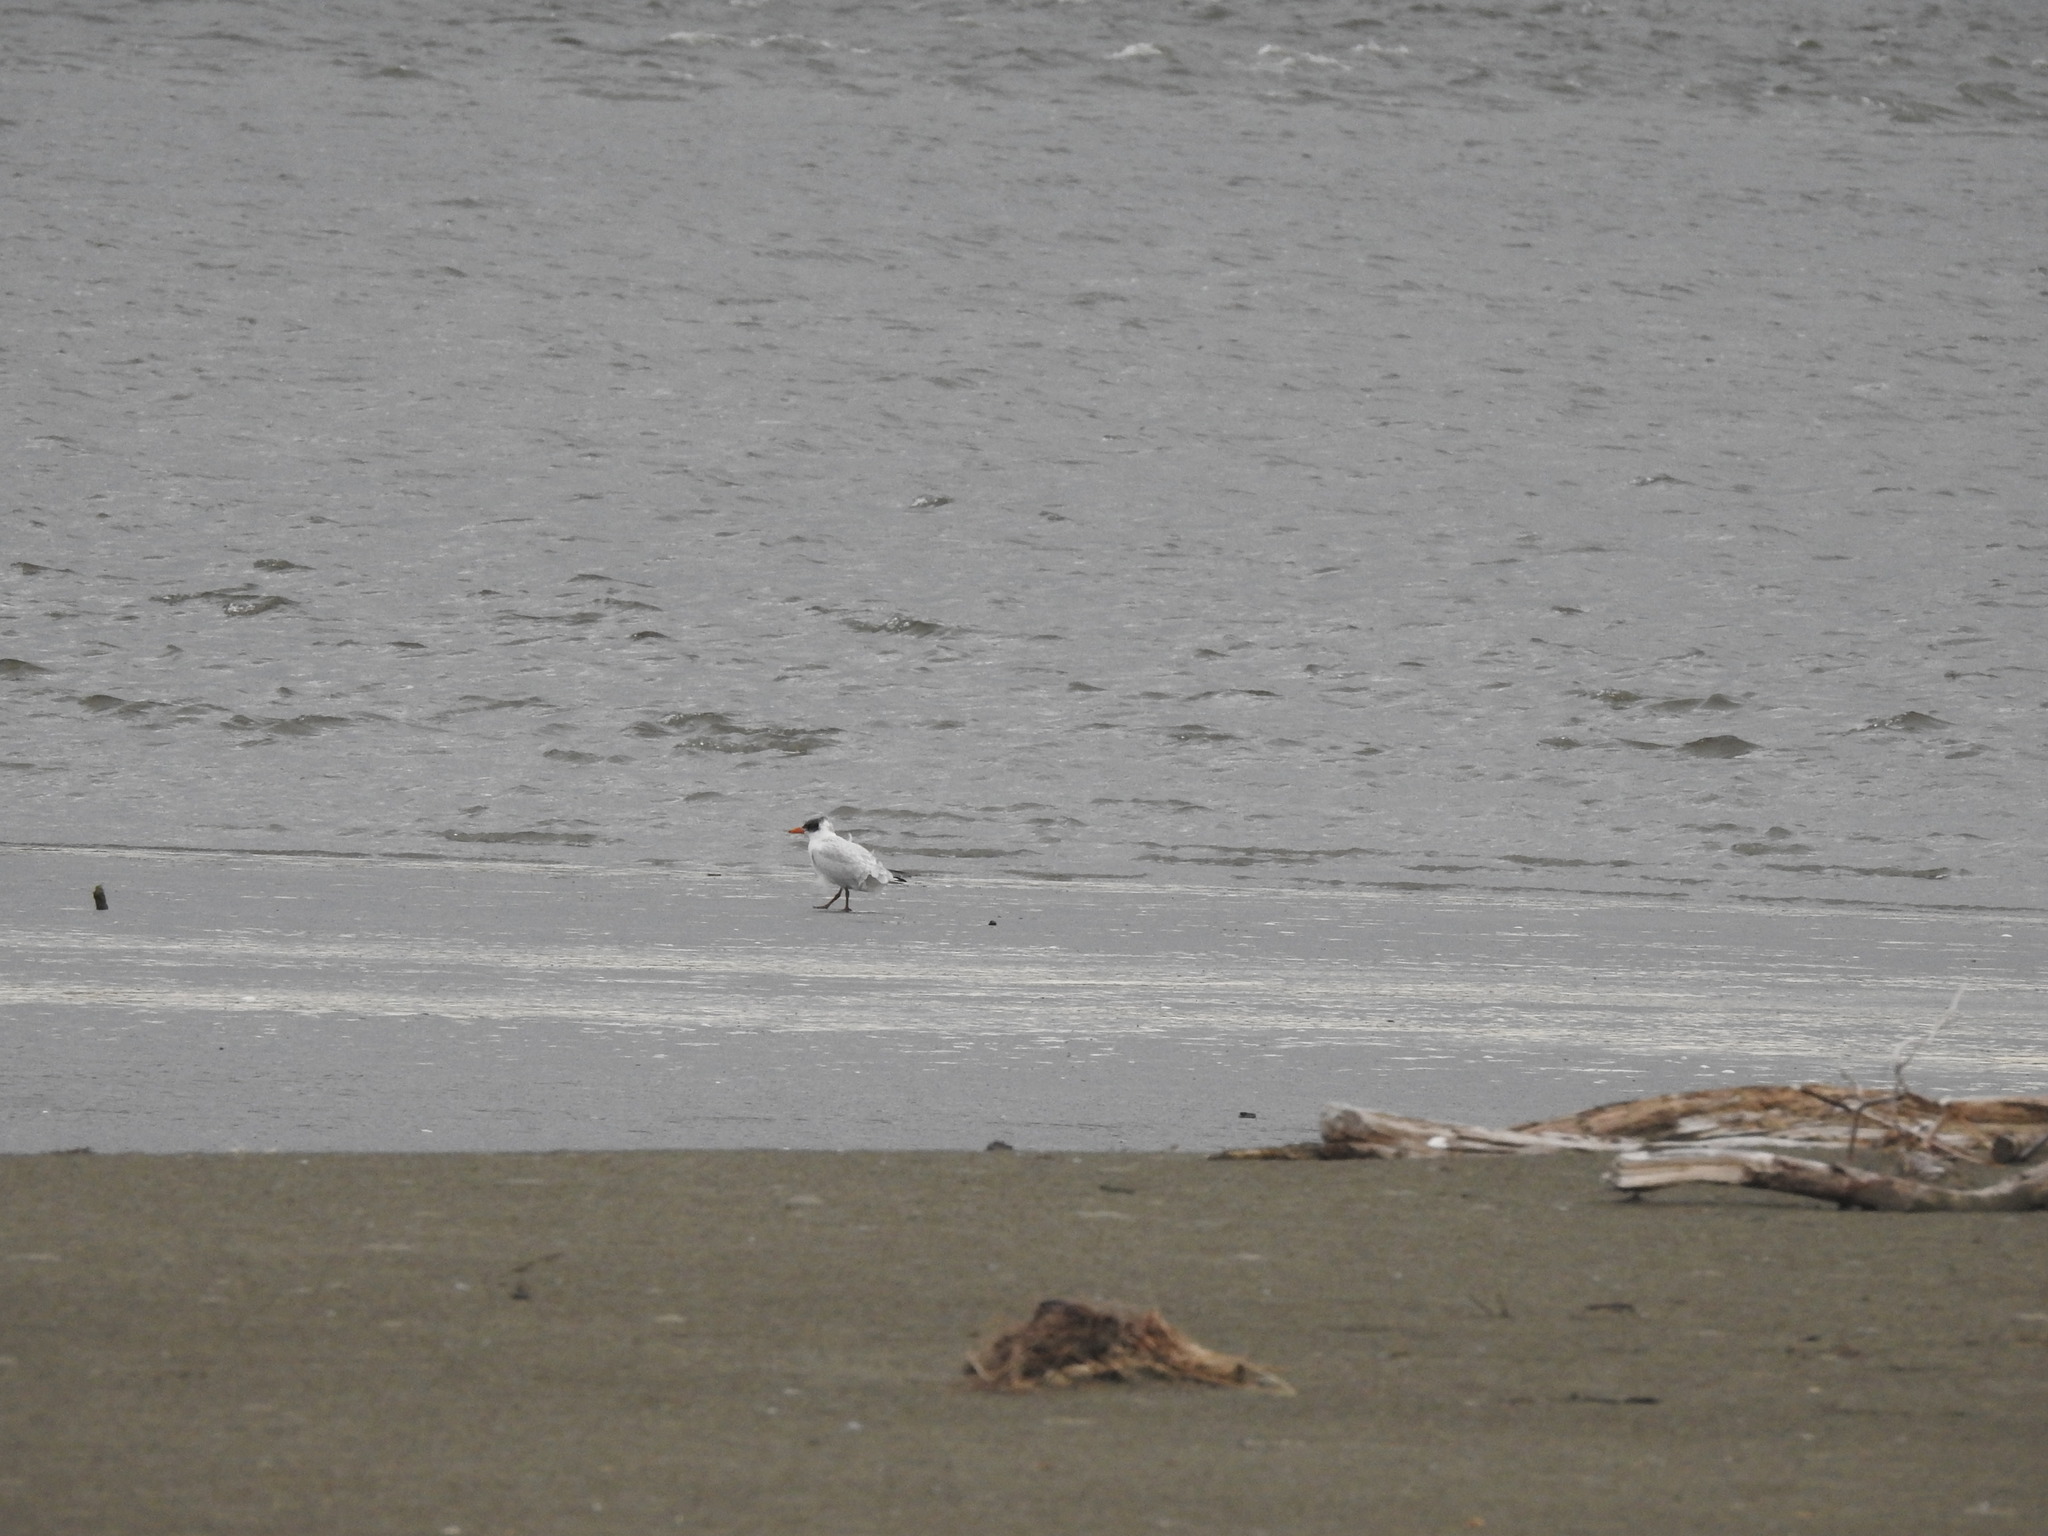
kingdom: Animalia
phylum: Chordata
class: Aves
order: Charadriiformes
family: Laridae
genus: Hydroprogne
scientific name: Hydroprogne caspia
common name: Caspian tern
